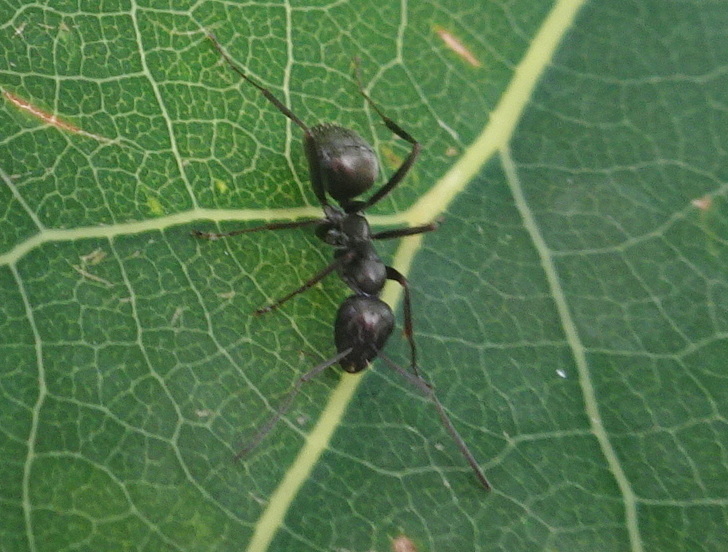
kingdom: Animalia
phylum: Arthropoda
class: Insecta
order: Hymenoptera
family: Formicidae
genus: Formica
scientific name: Formica
